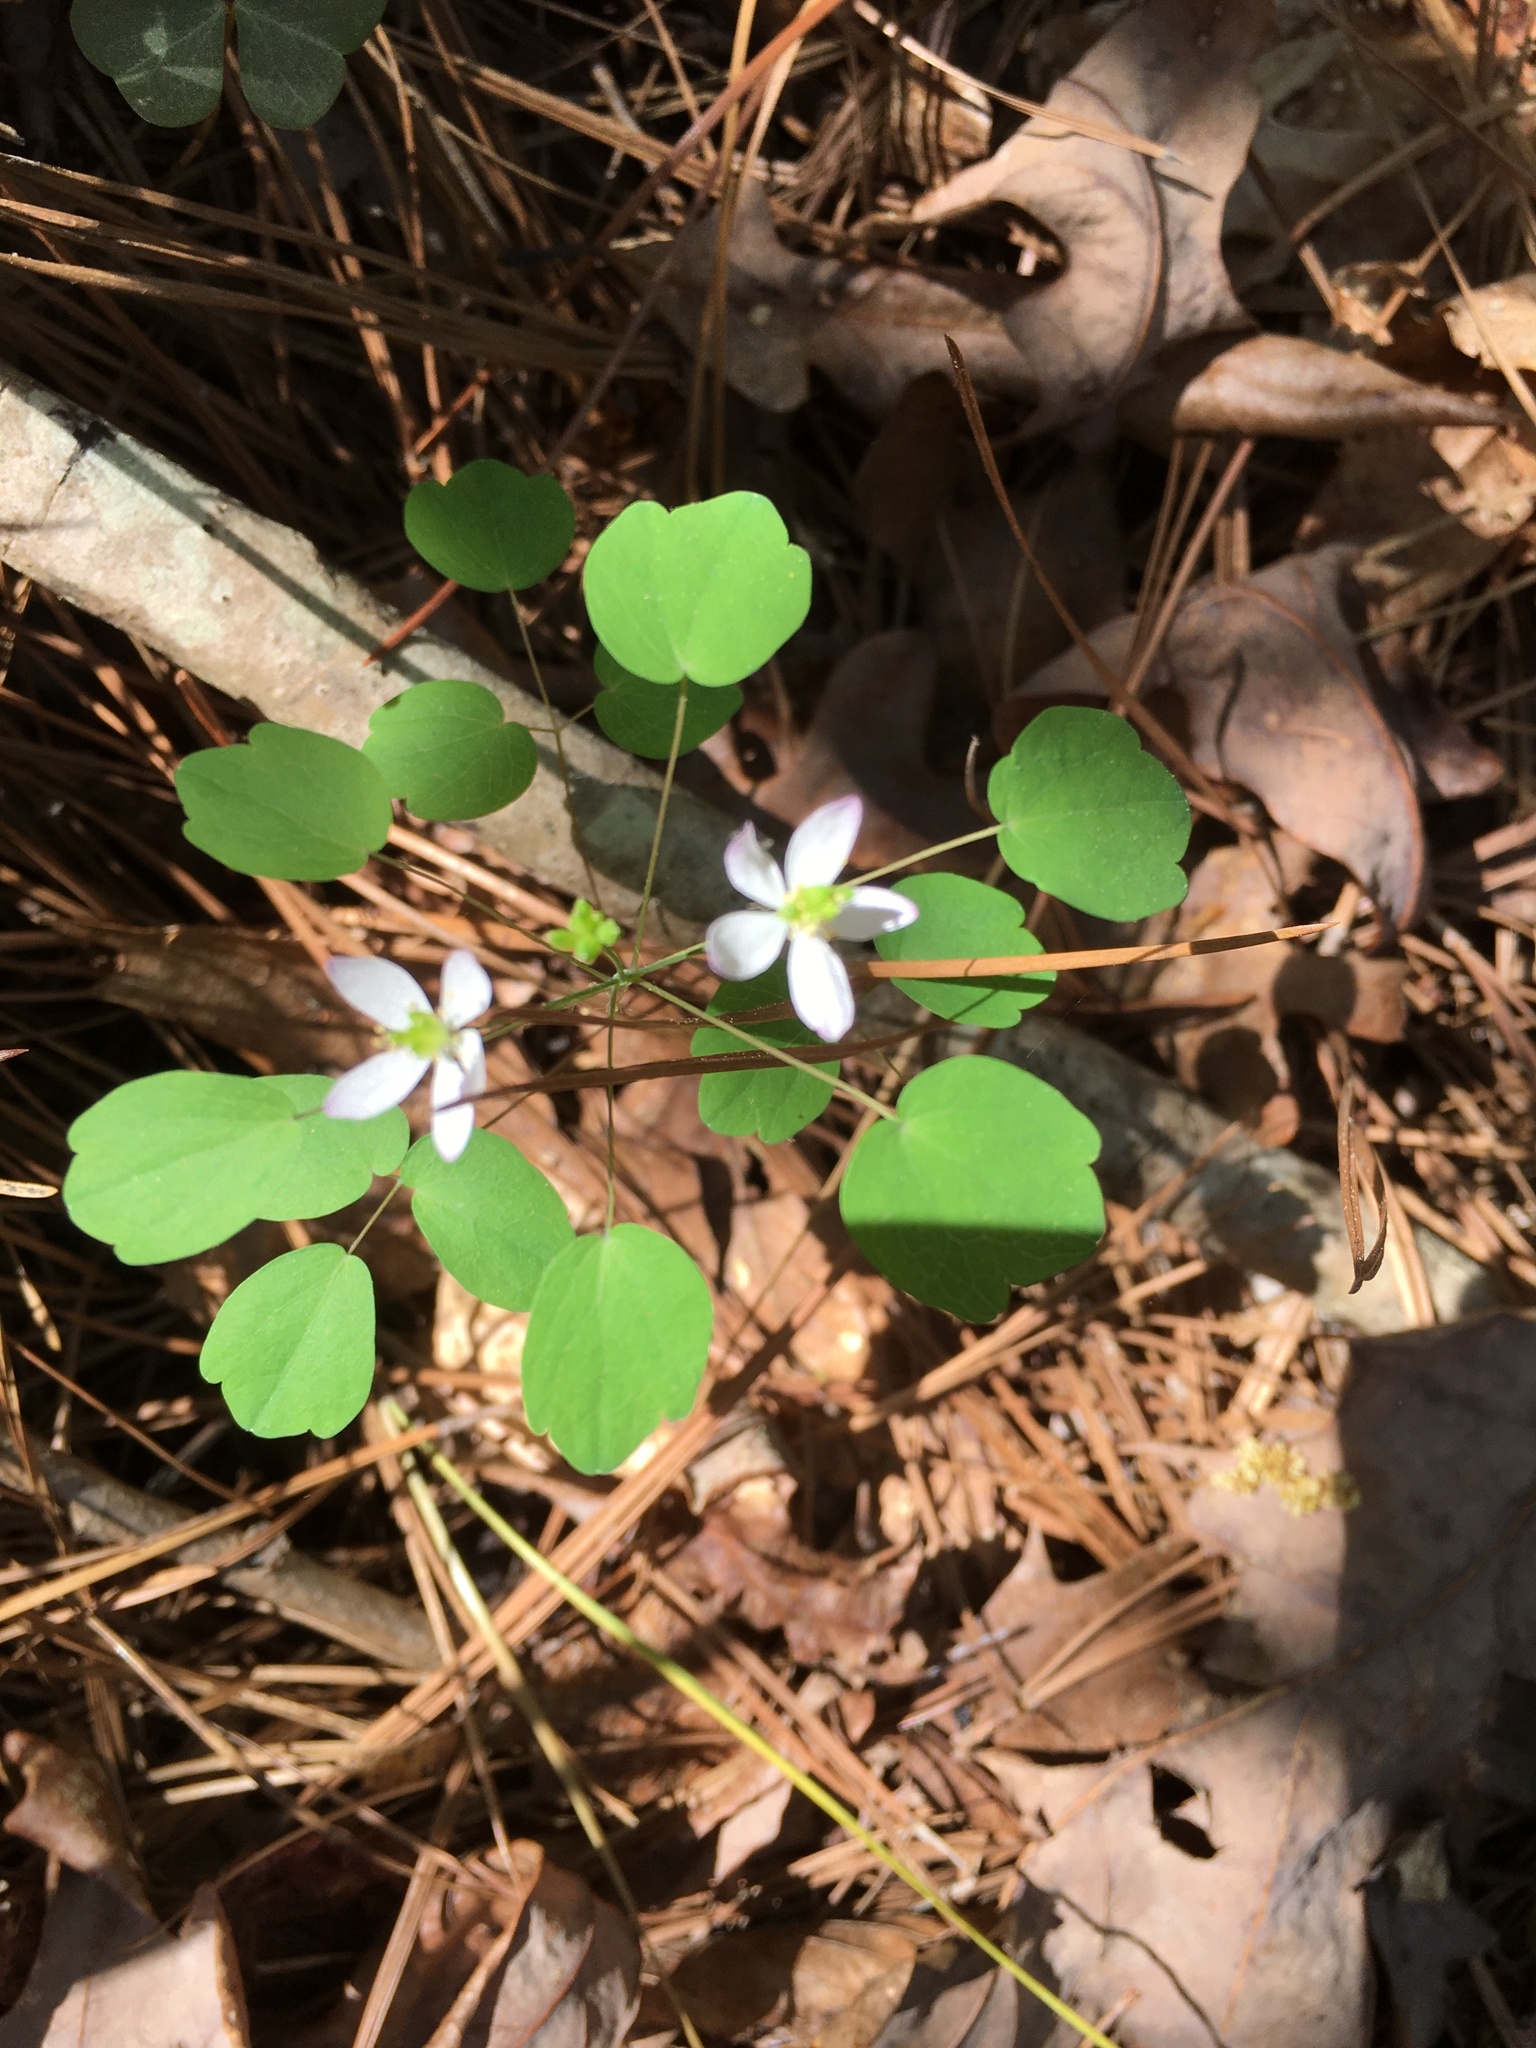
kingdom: Plantae
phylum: Tracheophyta
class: Magnoliopsida
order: Ranunculales
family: Ranunculaceae
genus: Thalictrum
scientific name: Thalictrum thalictroides
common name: Rue-anemone
